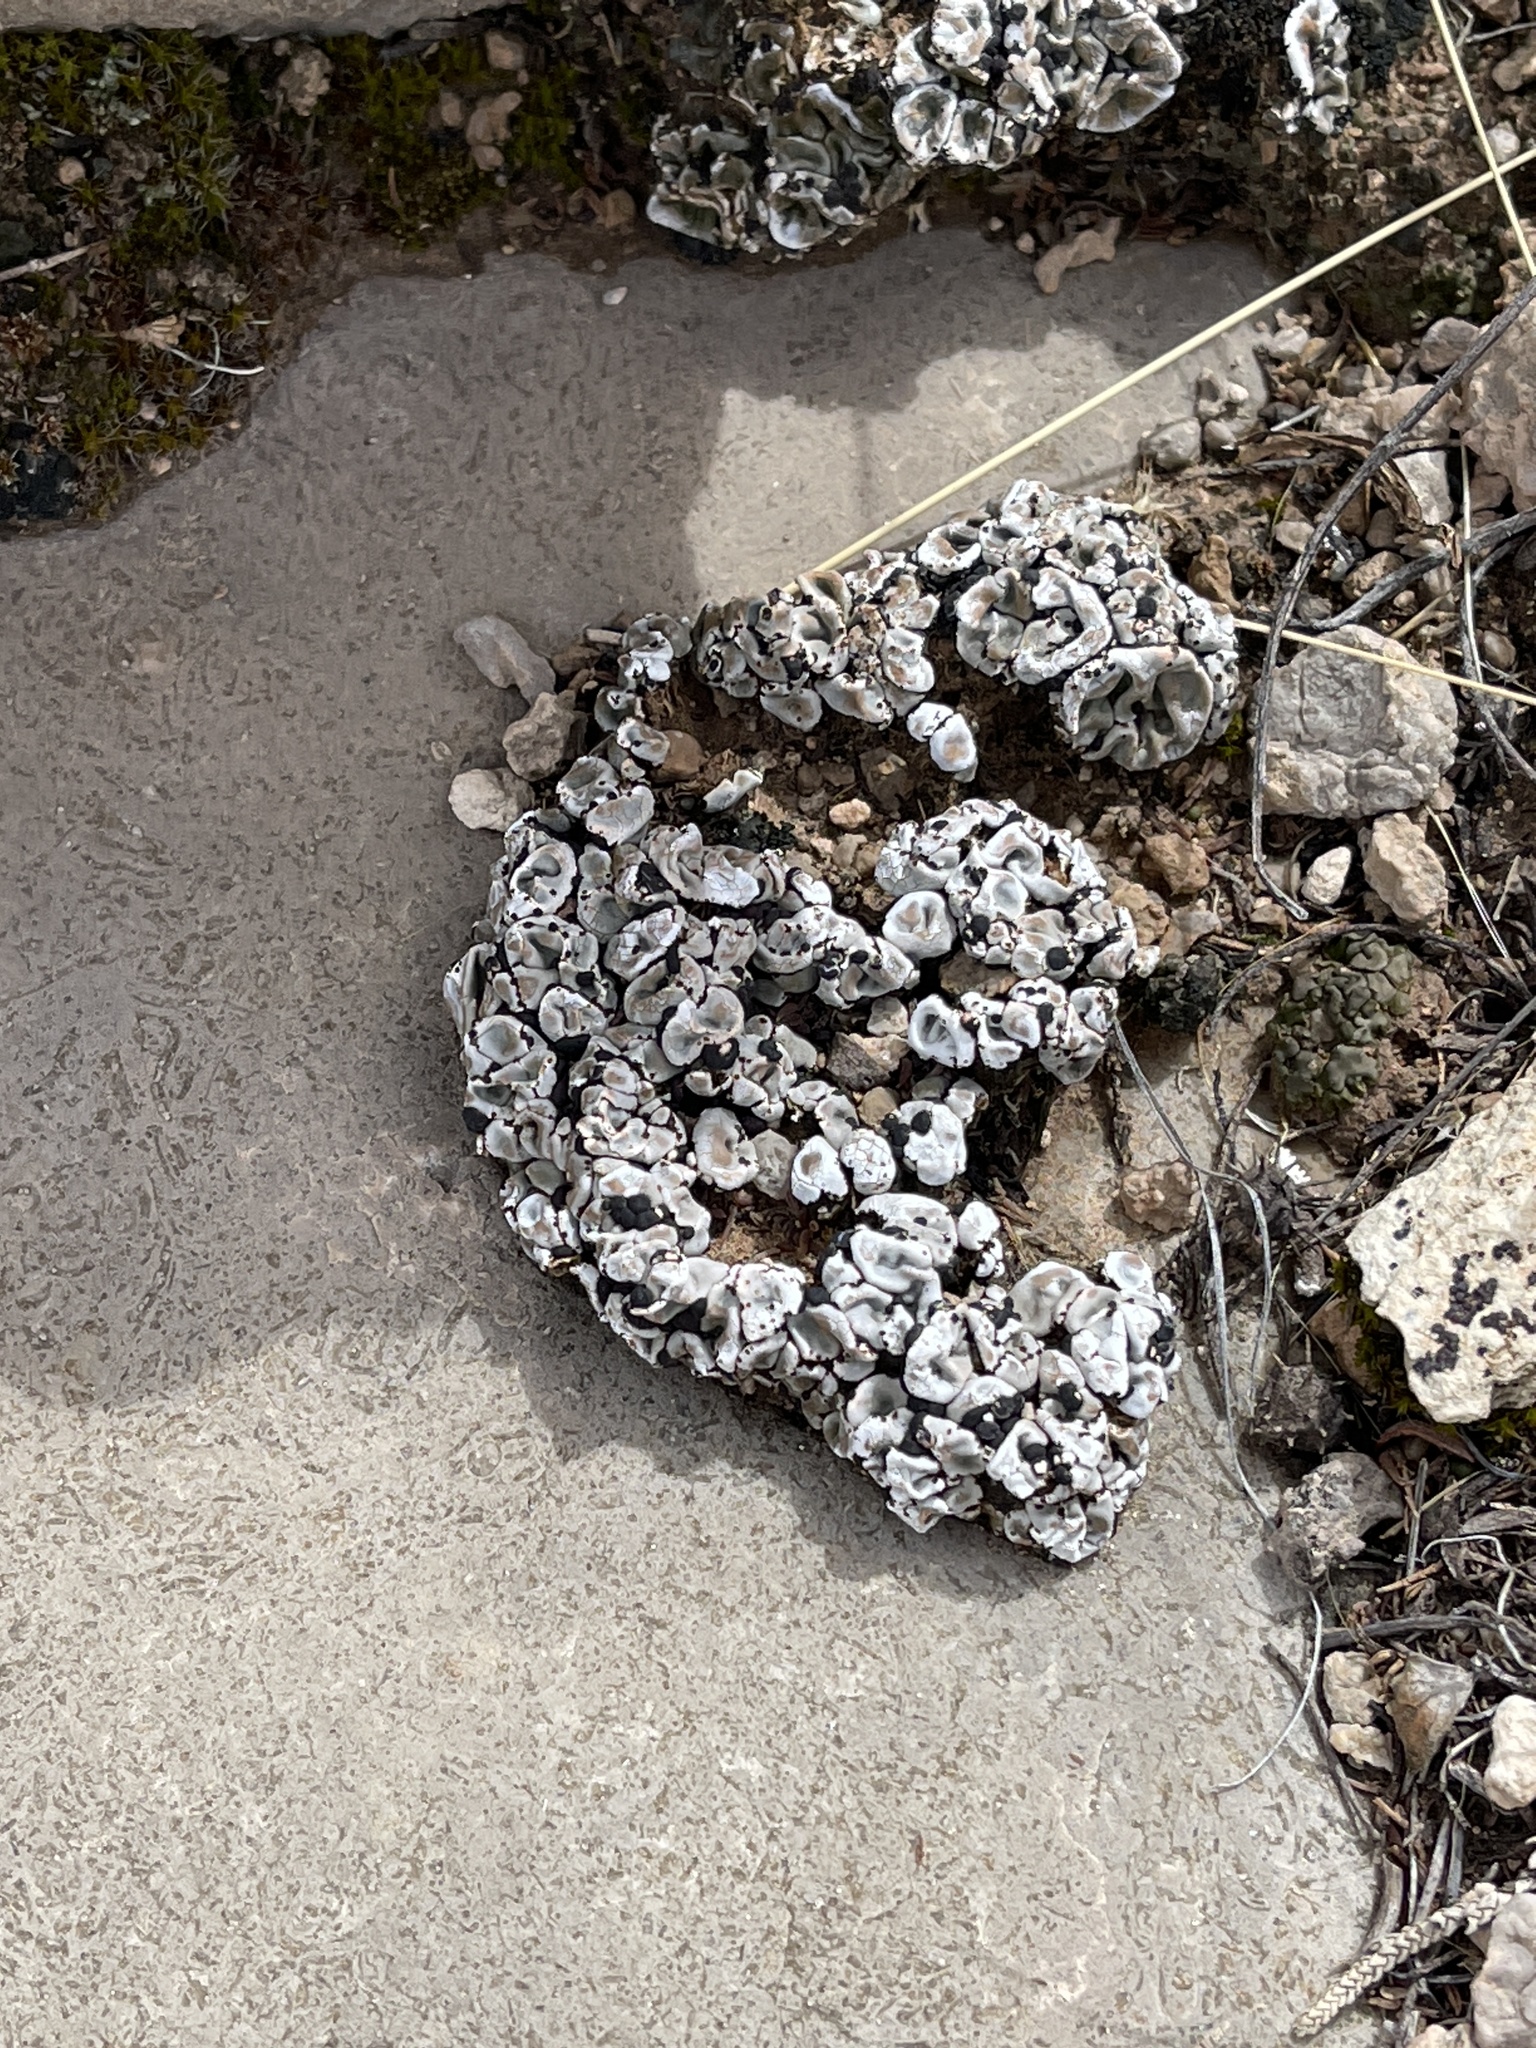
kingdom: Fungi
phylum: Ascomycota
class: Lecanoromycetes
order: Lecanorales
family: Psoraceae
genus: Psora
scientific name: Psora crenata
